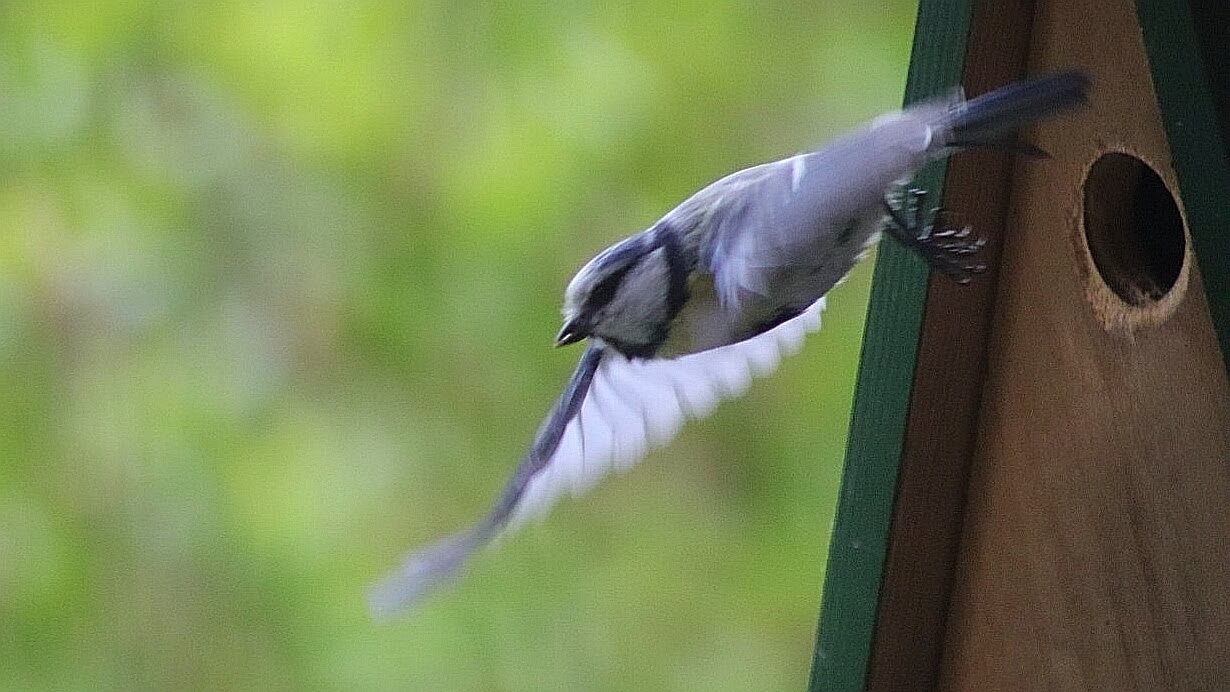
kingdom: Animalia
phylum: Chordata
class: Aves
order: Passeriformes
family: Paridae
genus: Cyanistes
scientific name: Cyanistes caeruleus
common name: Eurasian blue tit
